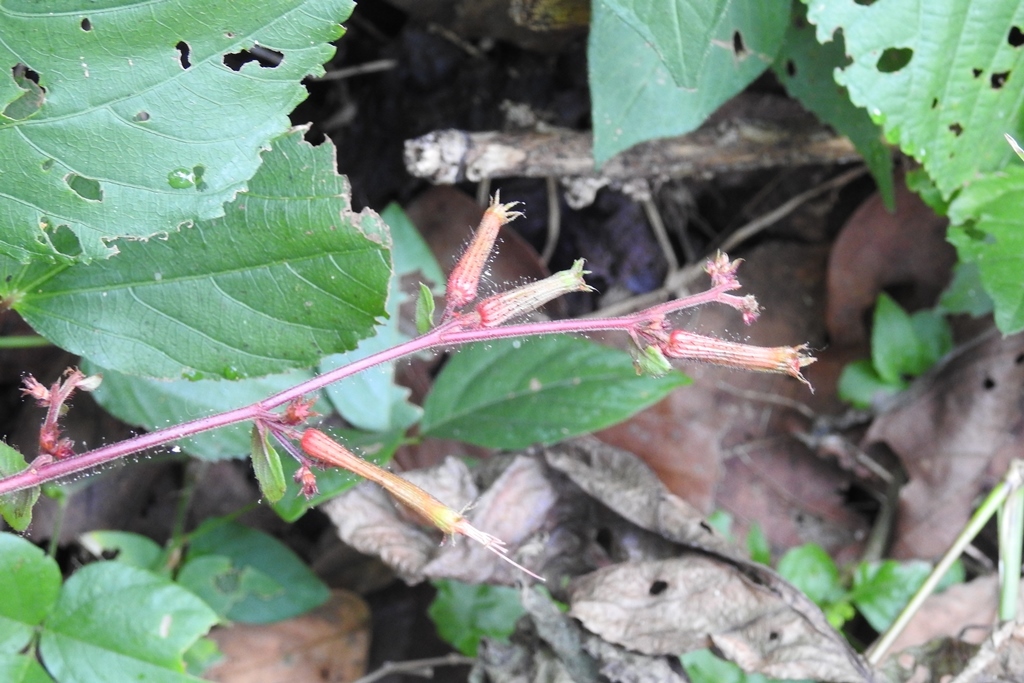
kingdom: Plantae
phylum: Tracheophyta
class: Magnoliopsida
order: Myrtales
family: Lythraceae
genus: Cuphea
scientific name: Cuphea appendiculata
